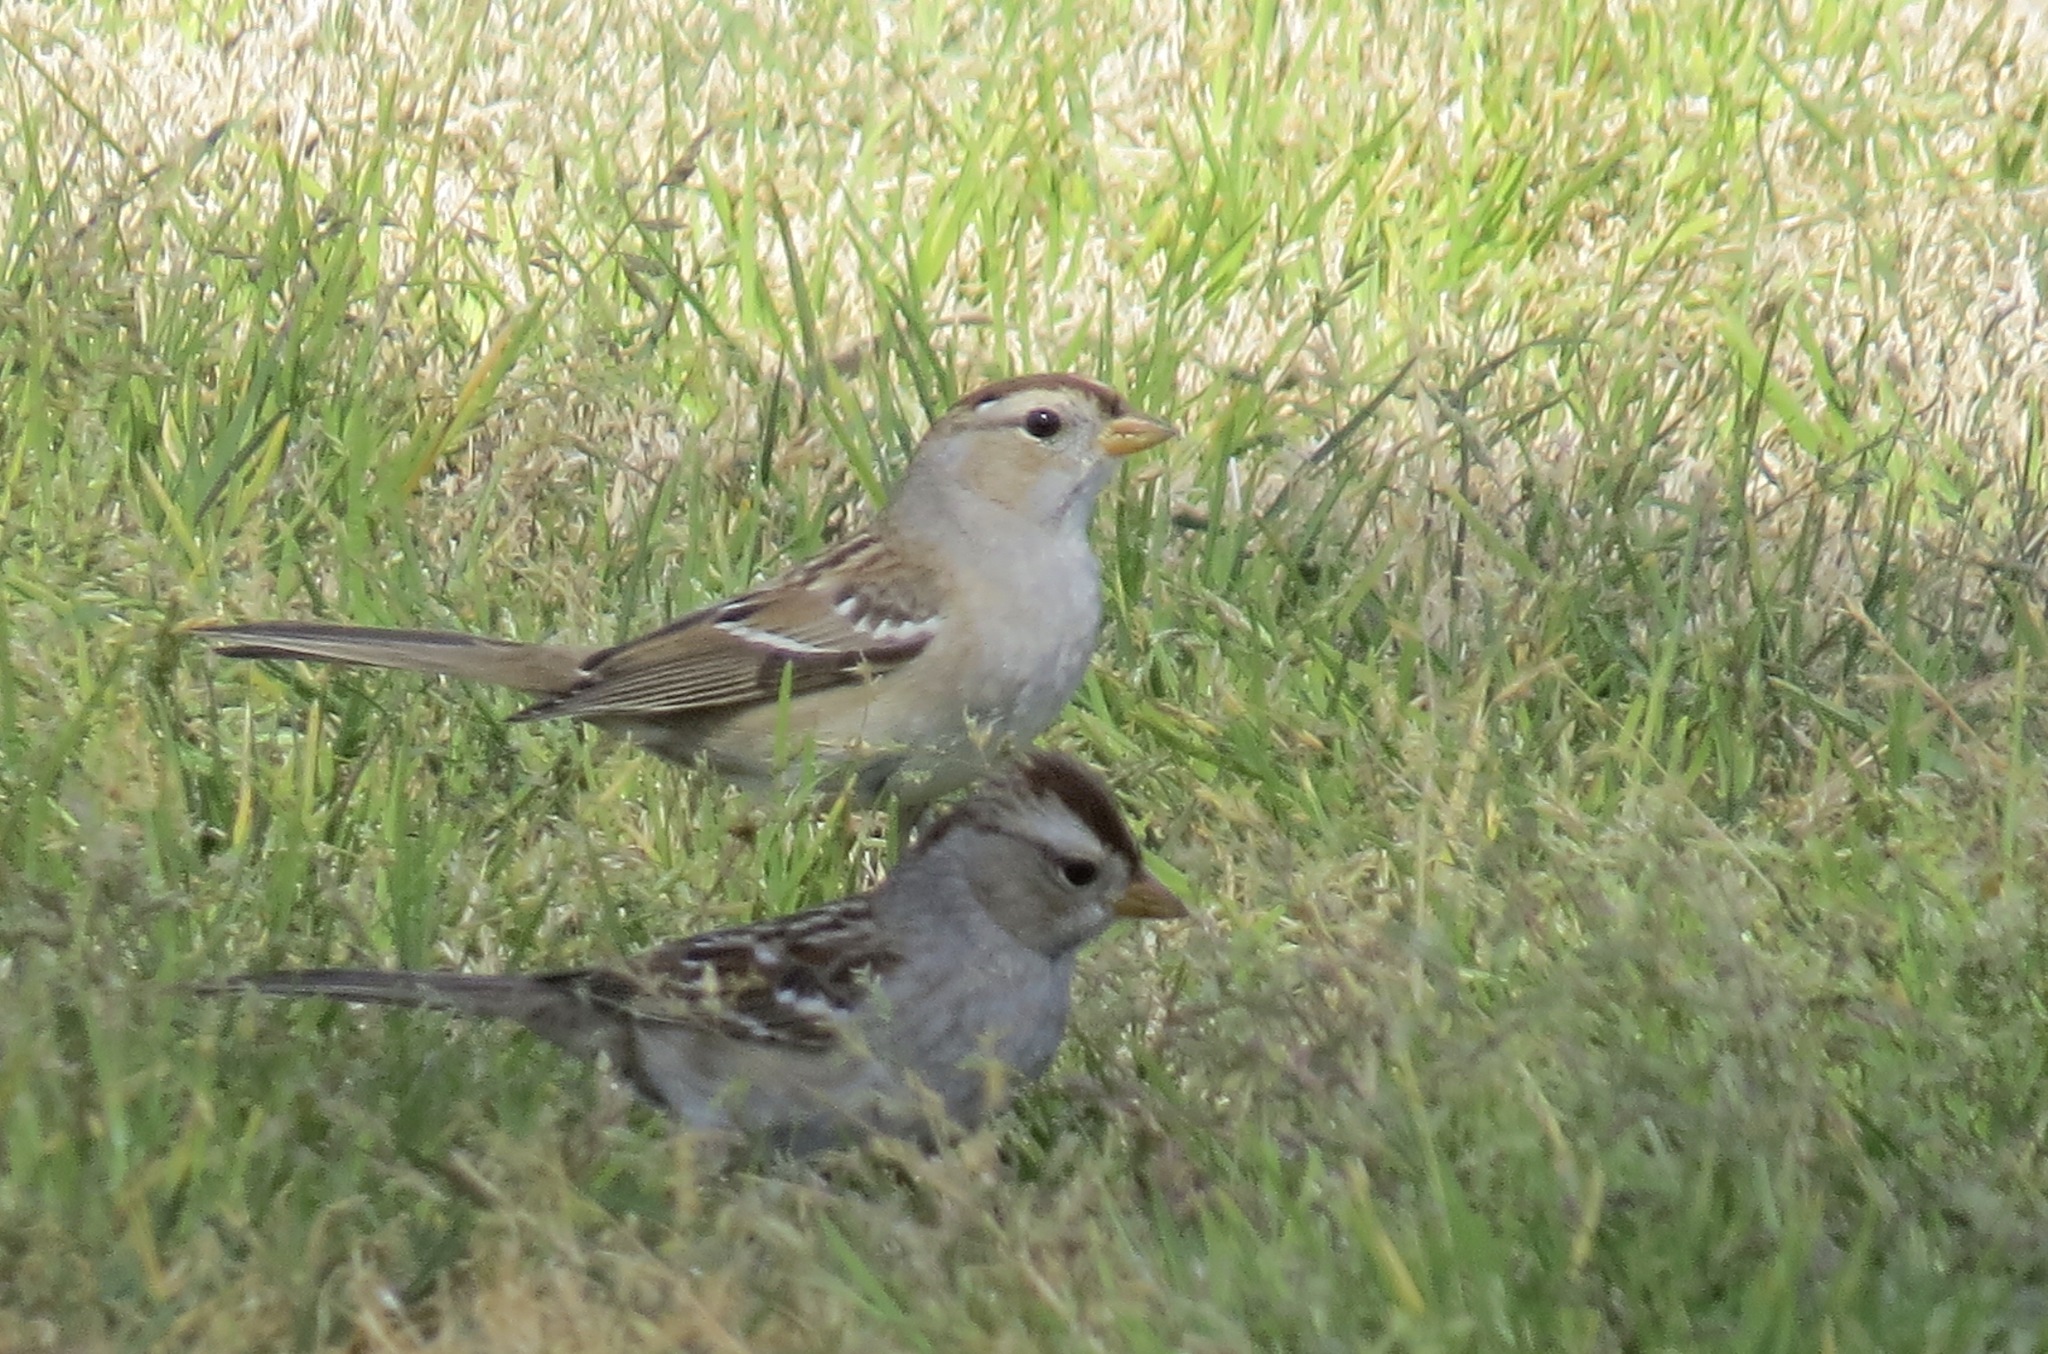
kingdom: Animalia
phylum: Chordata
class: Aves
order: Passeriformes
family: Passerellidae
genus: Zonotrichia
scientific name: Zonotrichia leucophrys
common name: White-crowned sparrow
